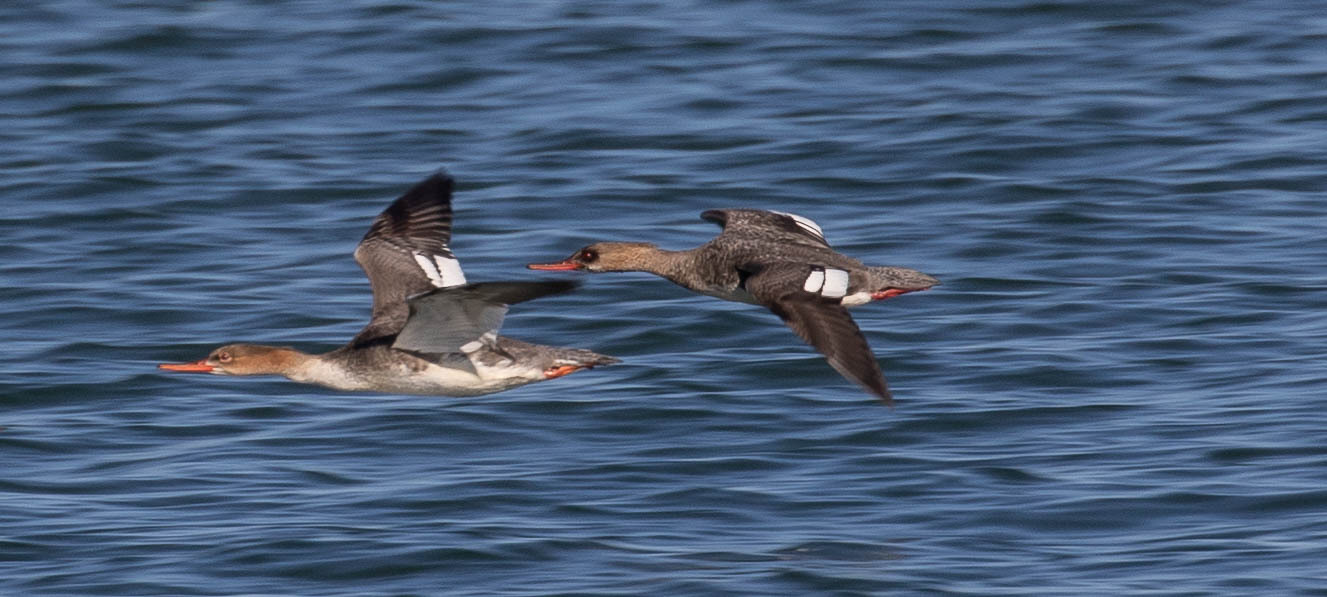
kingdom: Animalia
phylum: Chordata
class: Aves
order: Anseriformes
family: Anatidae
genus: Mergus
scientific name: Mergus serrator
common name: Red-breasted merganser
